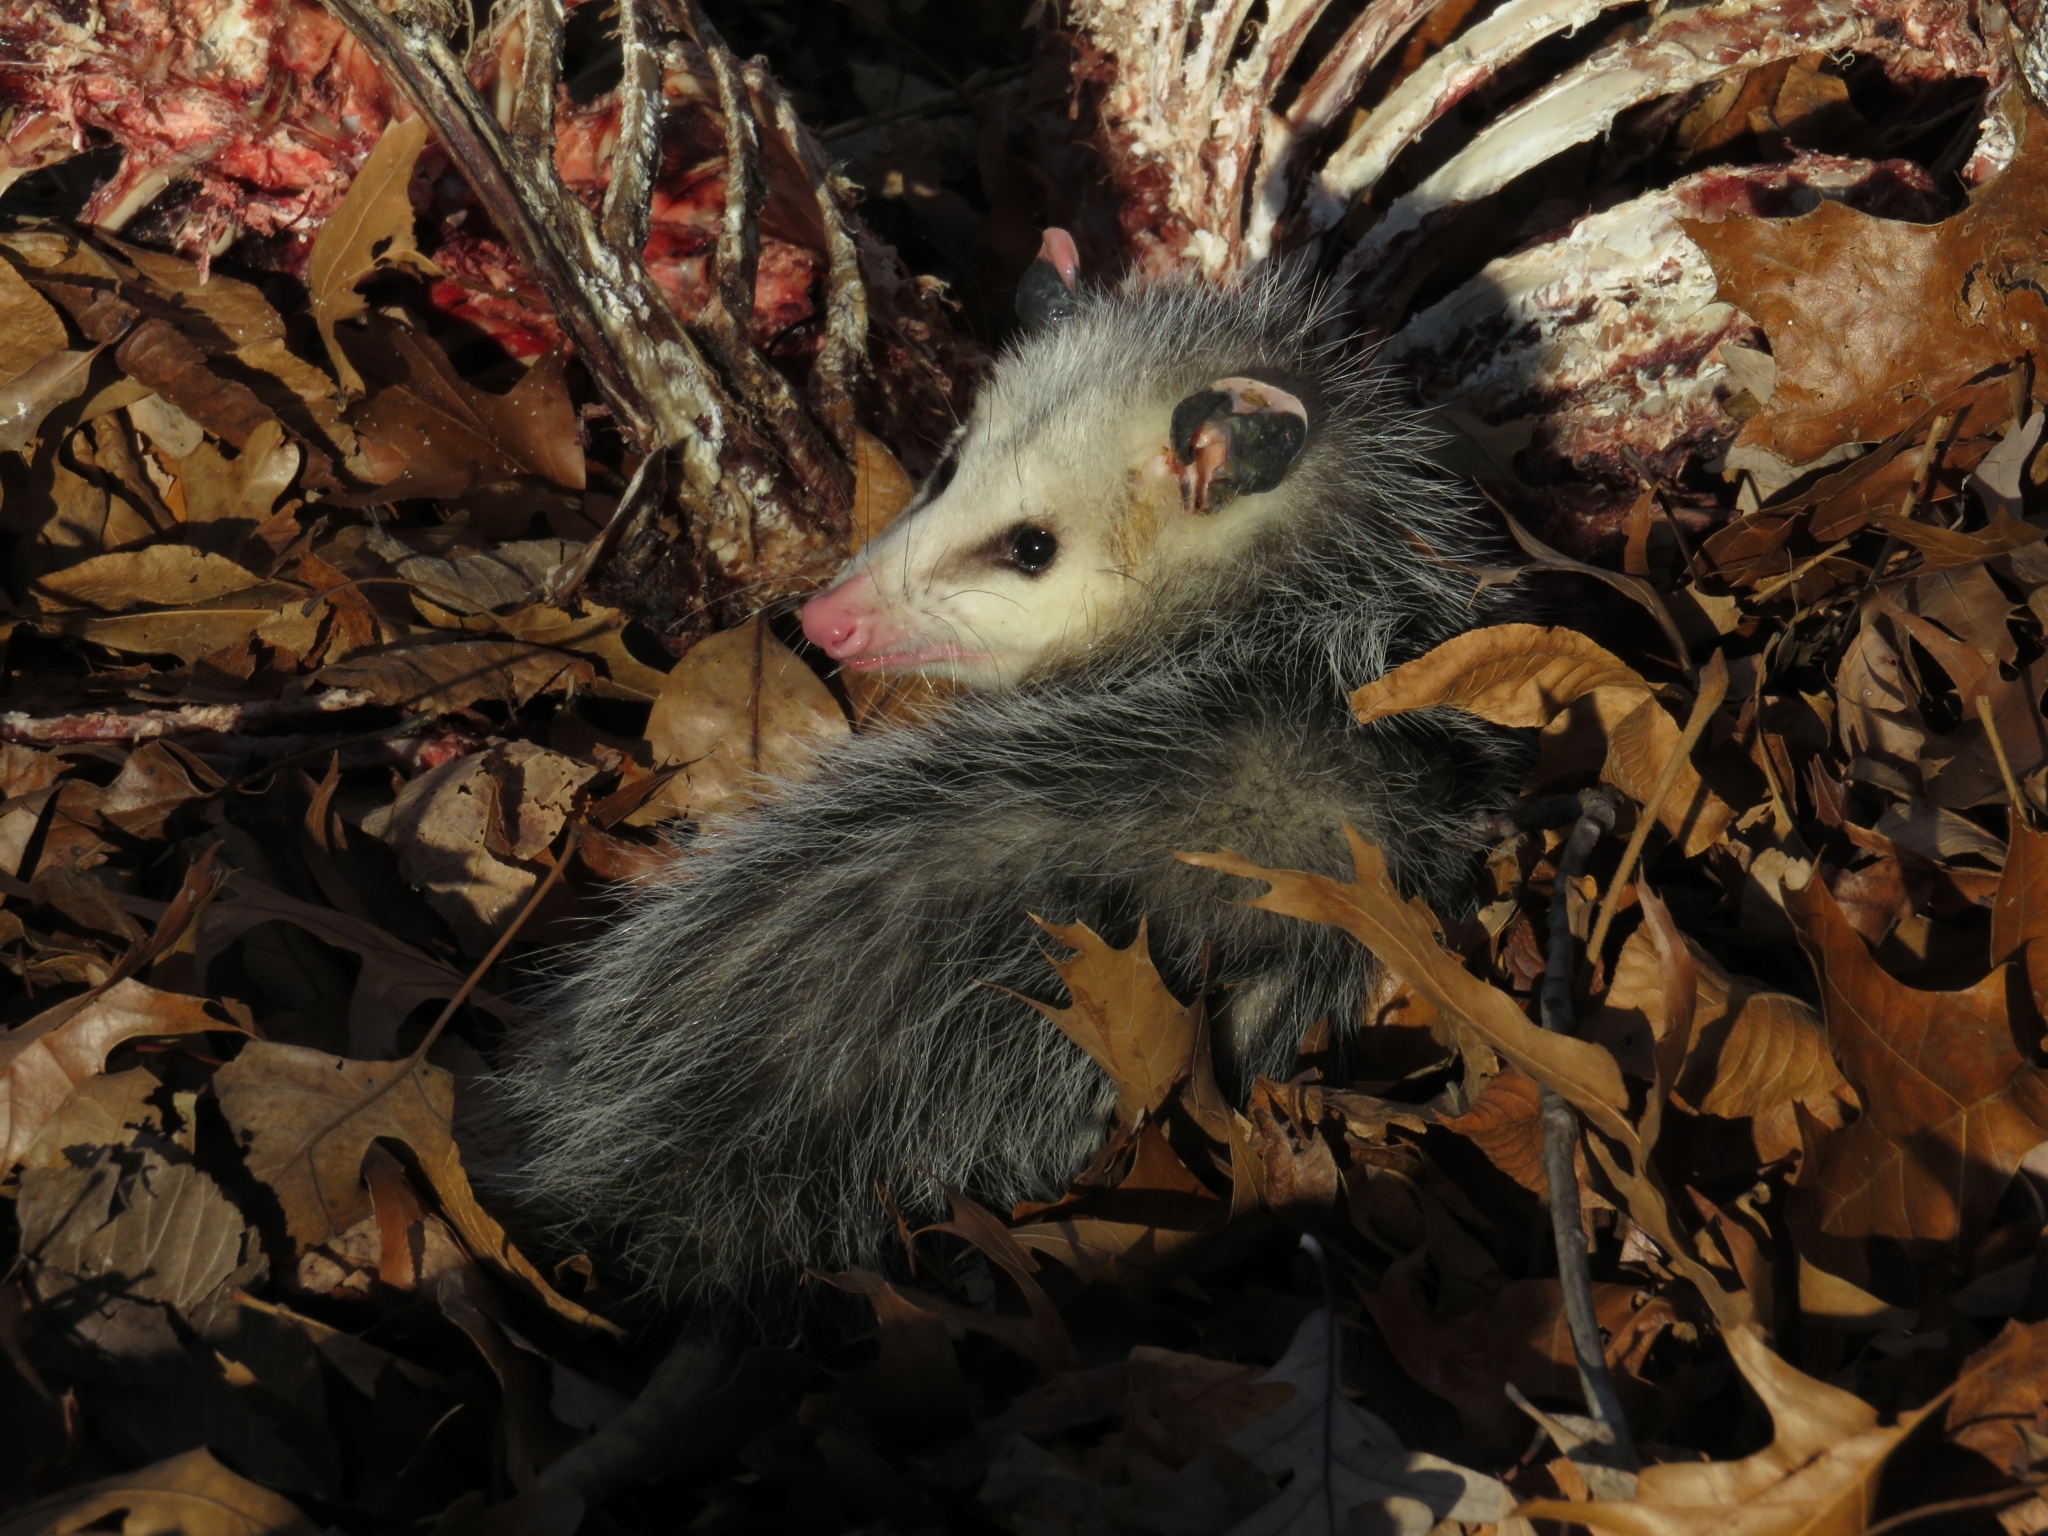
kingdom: Animalia
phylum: Chordata
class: Mammalia
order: Didelphimorphia
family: Didelphidae
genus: Didelphis
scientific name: Didelphis virginiana
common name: Virginia opossum
